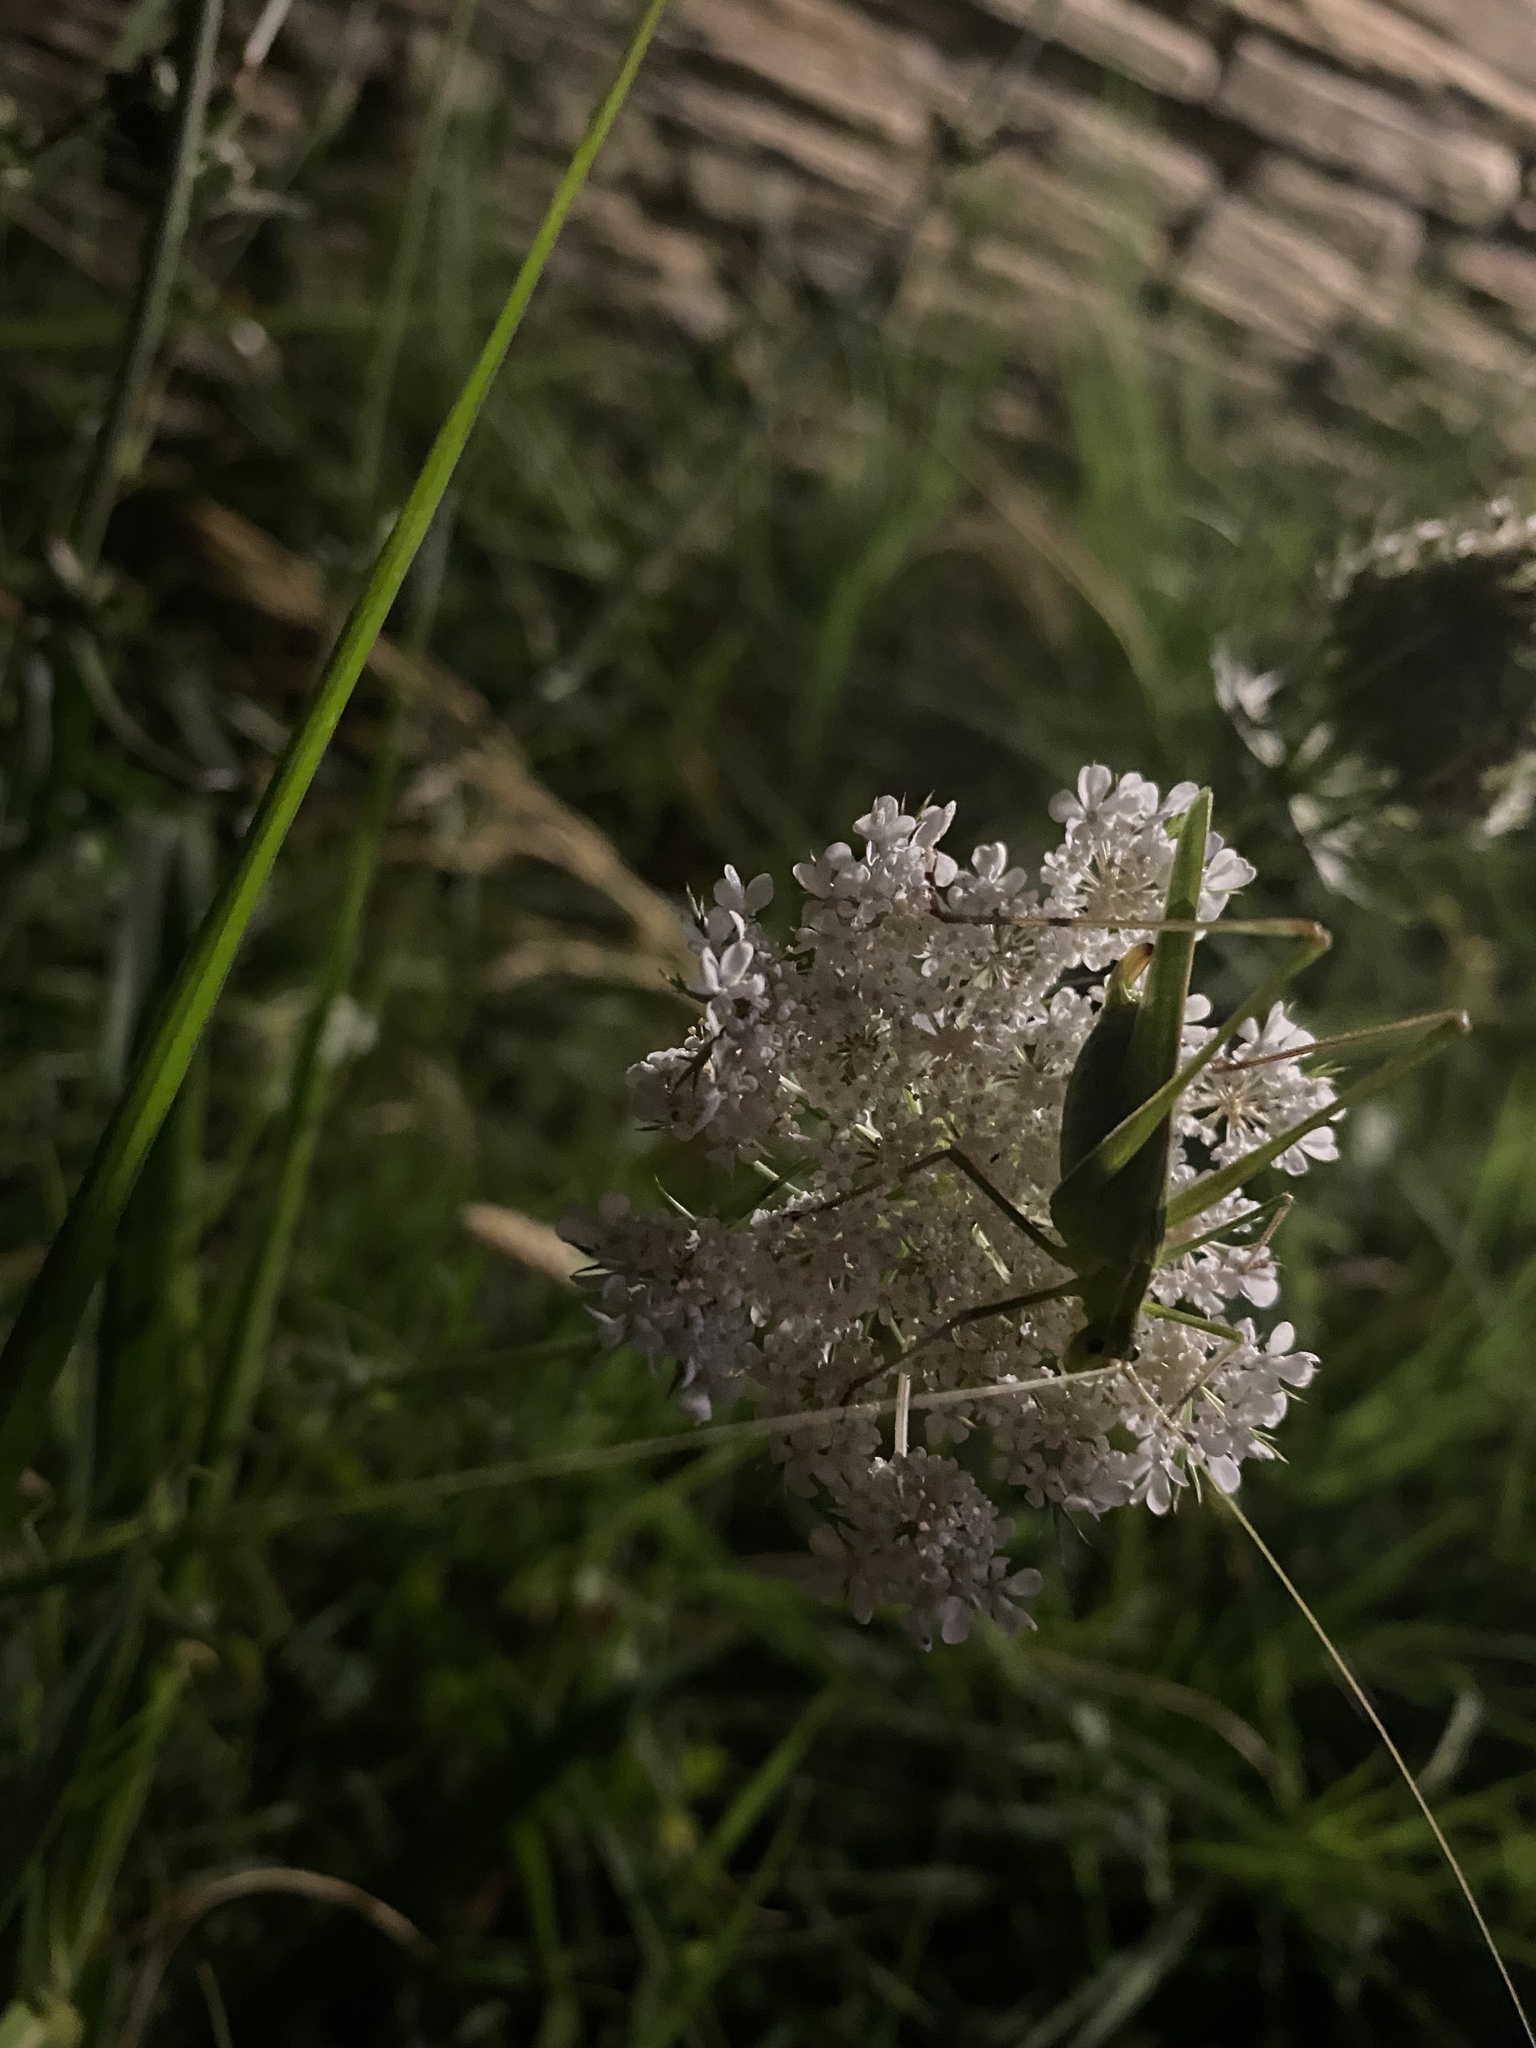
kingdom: Animalia
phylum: Arthropoda
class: Insecta
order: Orthoptera
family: Tettigoniidae
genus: Tylopsis
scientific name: Tylopsis lilifolia
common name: Lily bush-cricket
